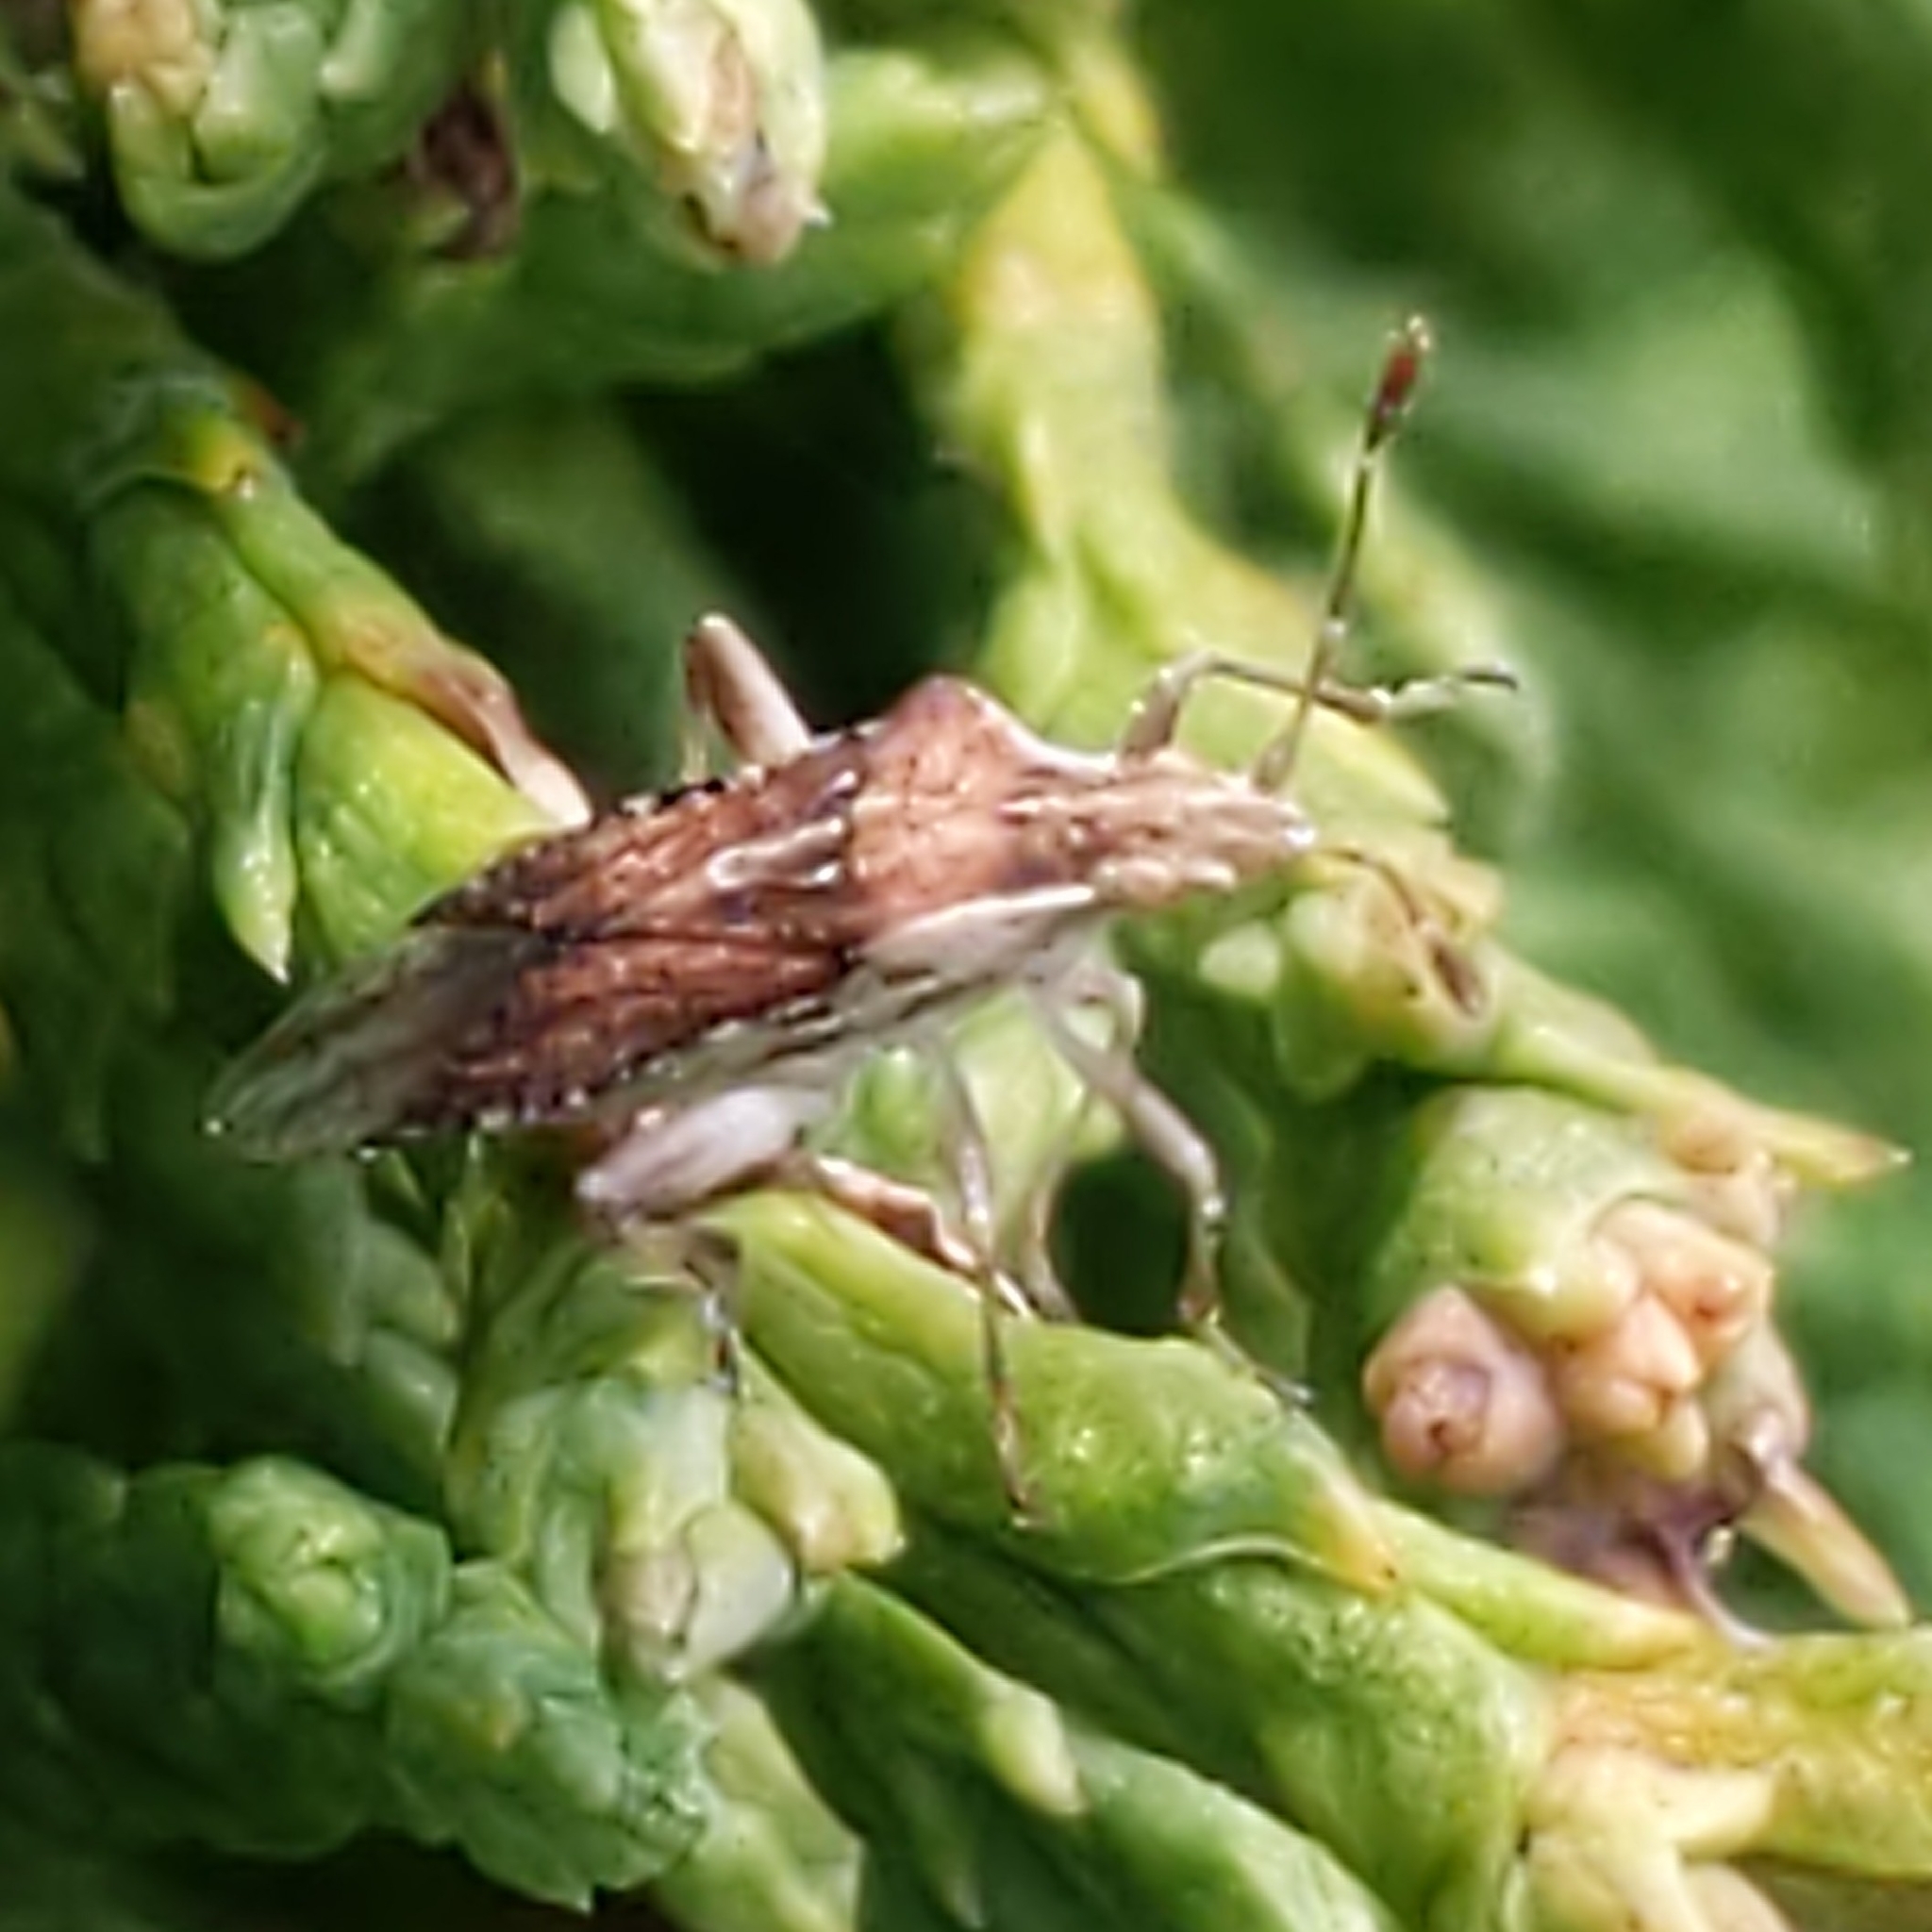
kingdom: Animalia
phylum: Arthropoda
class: Insecta
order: Hemiptera
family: Rhopalidae
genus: Harmostes
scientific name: Harmostes fraterculus
